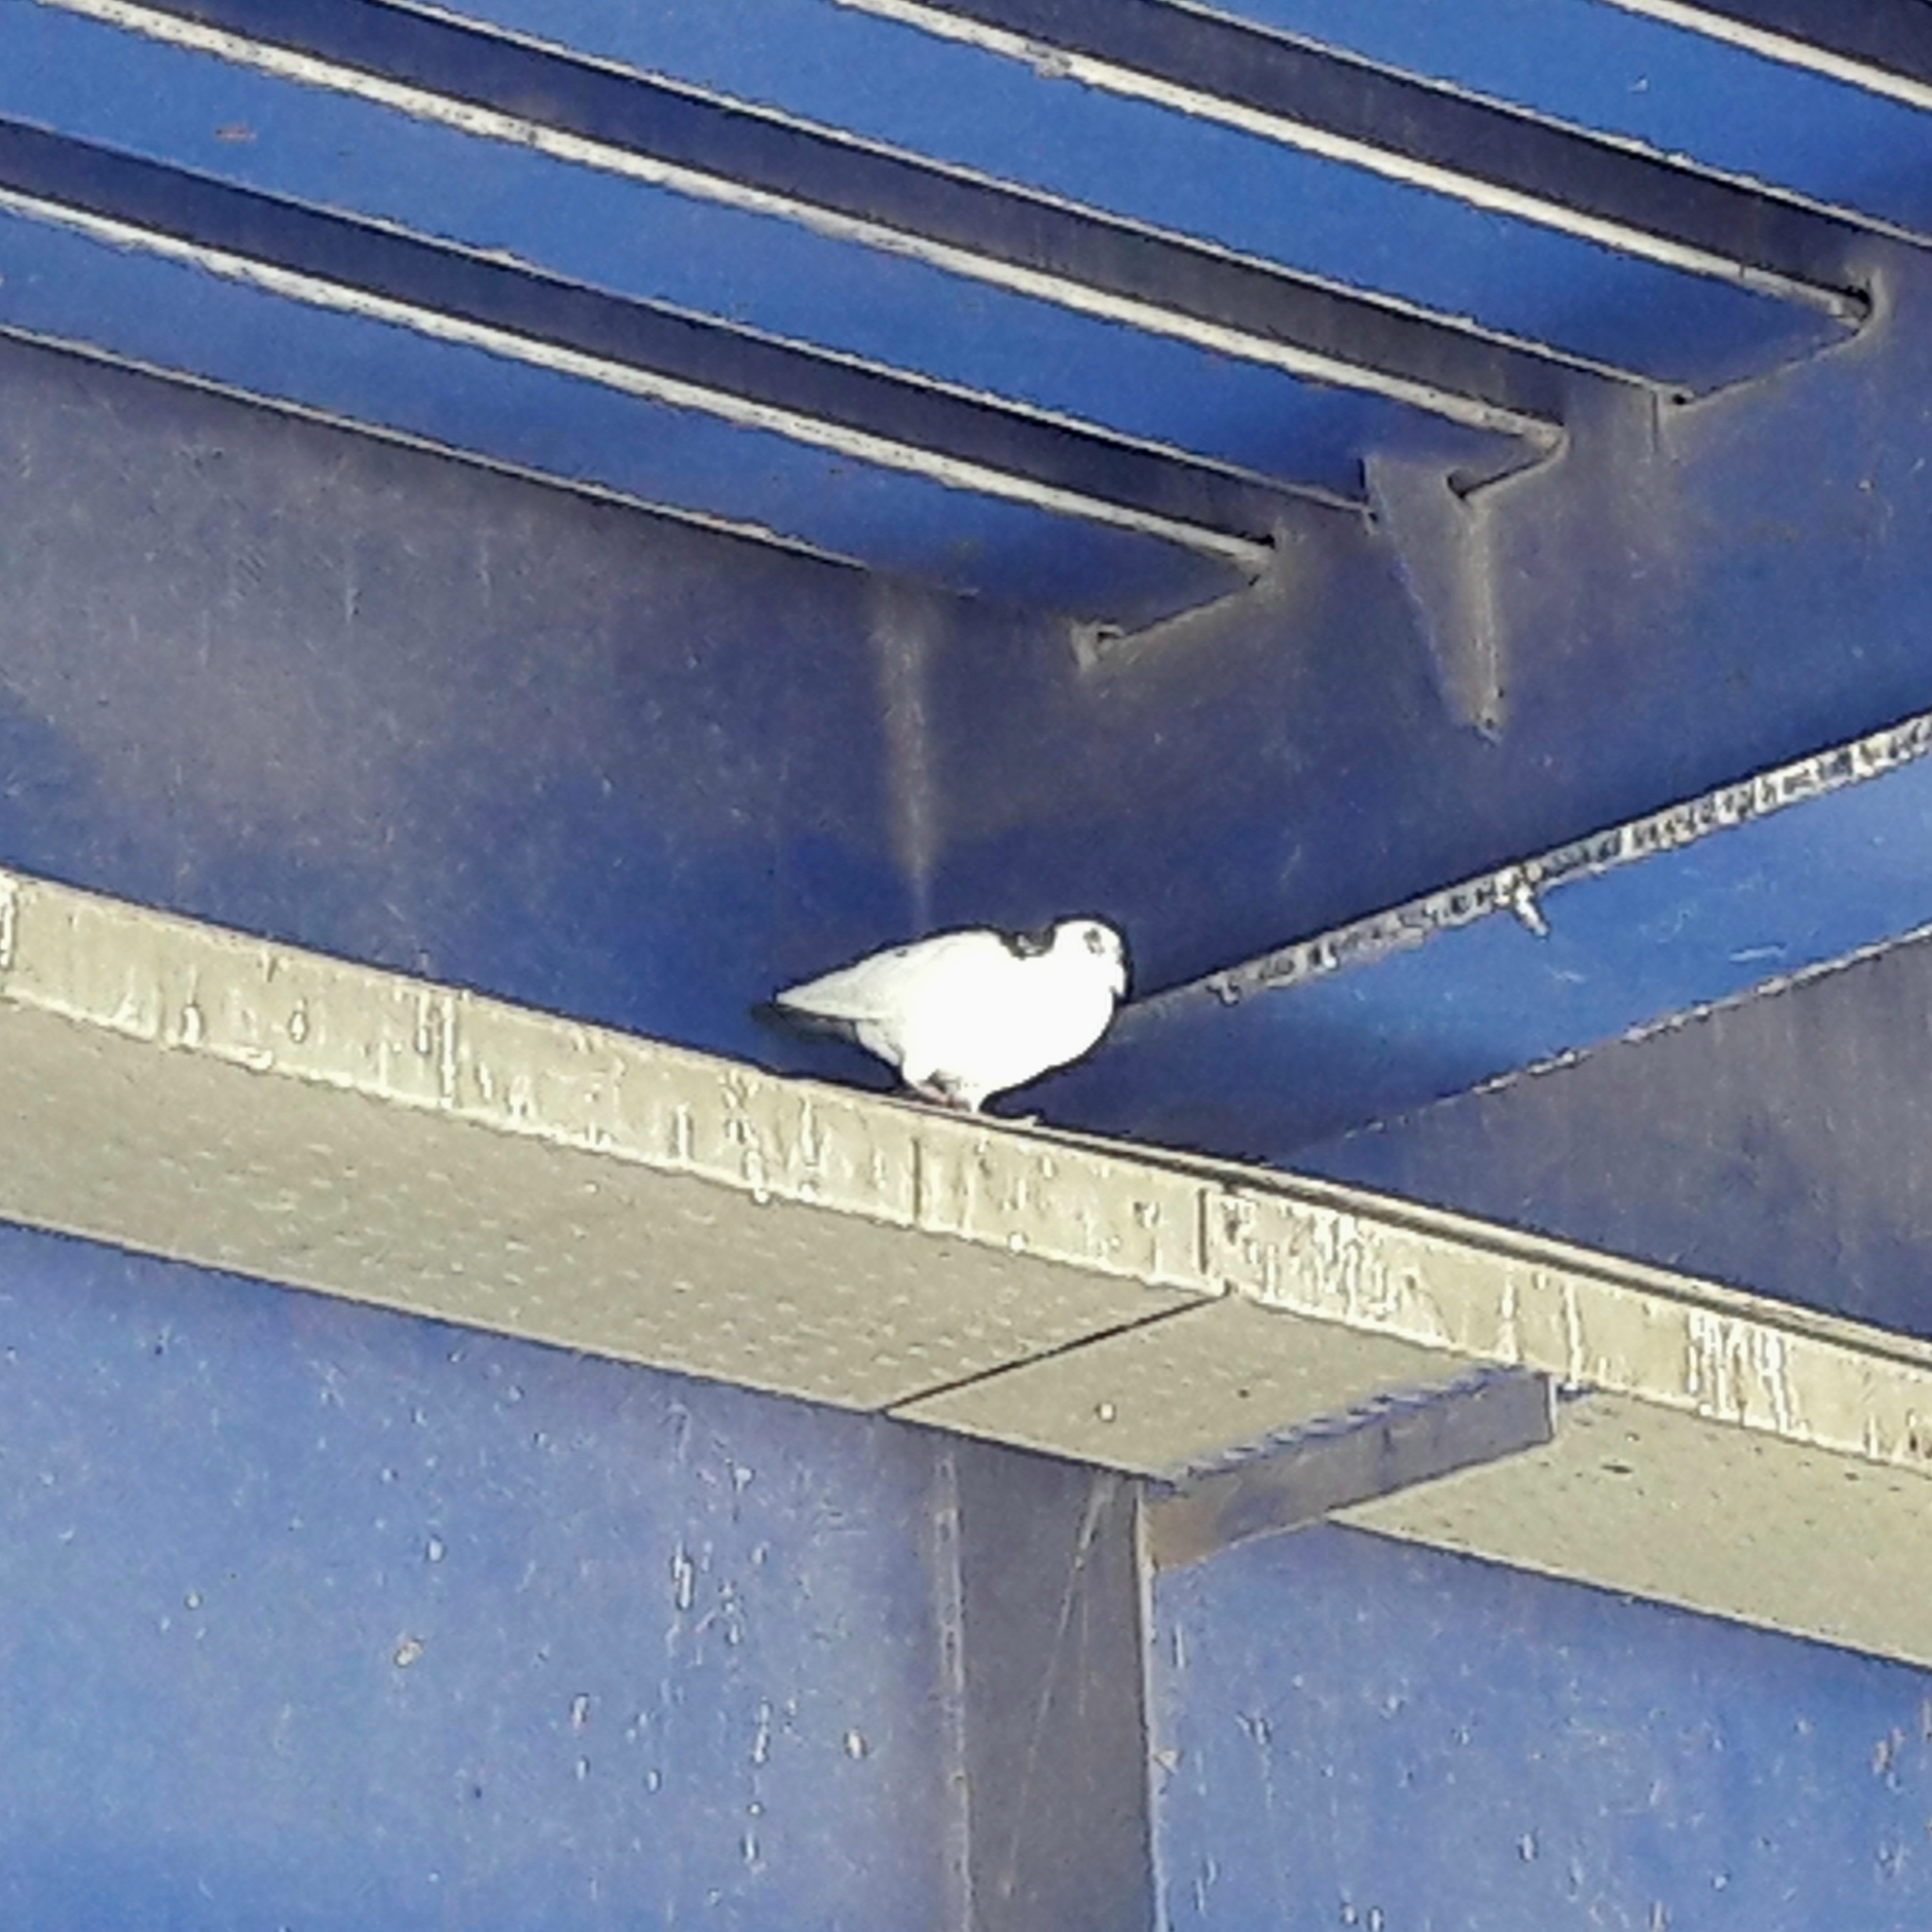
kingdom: Animalia
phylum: Chordata
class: Aves
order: Columbiformes
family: Columbidae
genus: Columba
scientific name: Columba livia
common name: Rock pigeon
